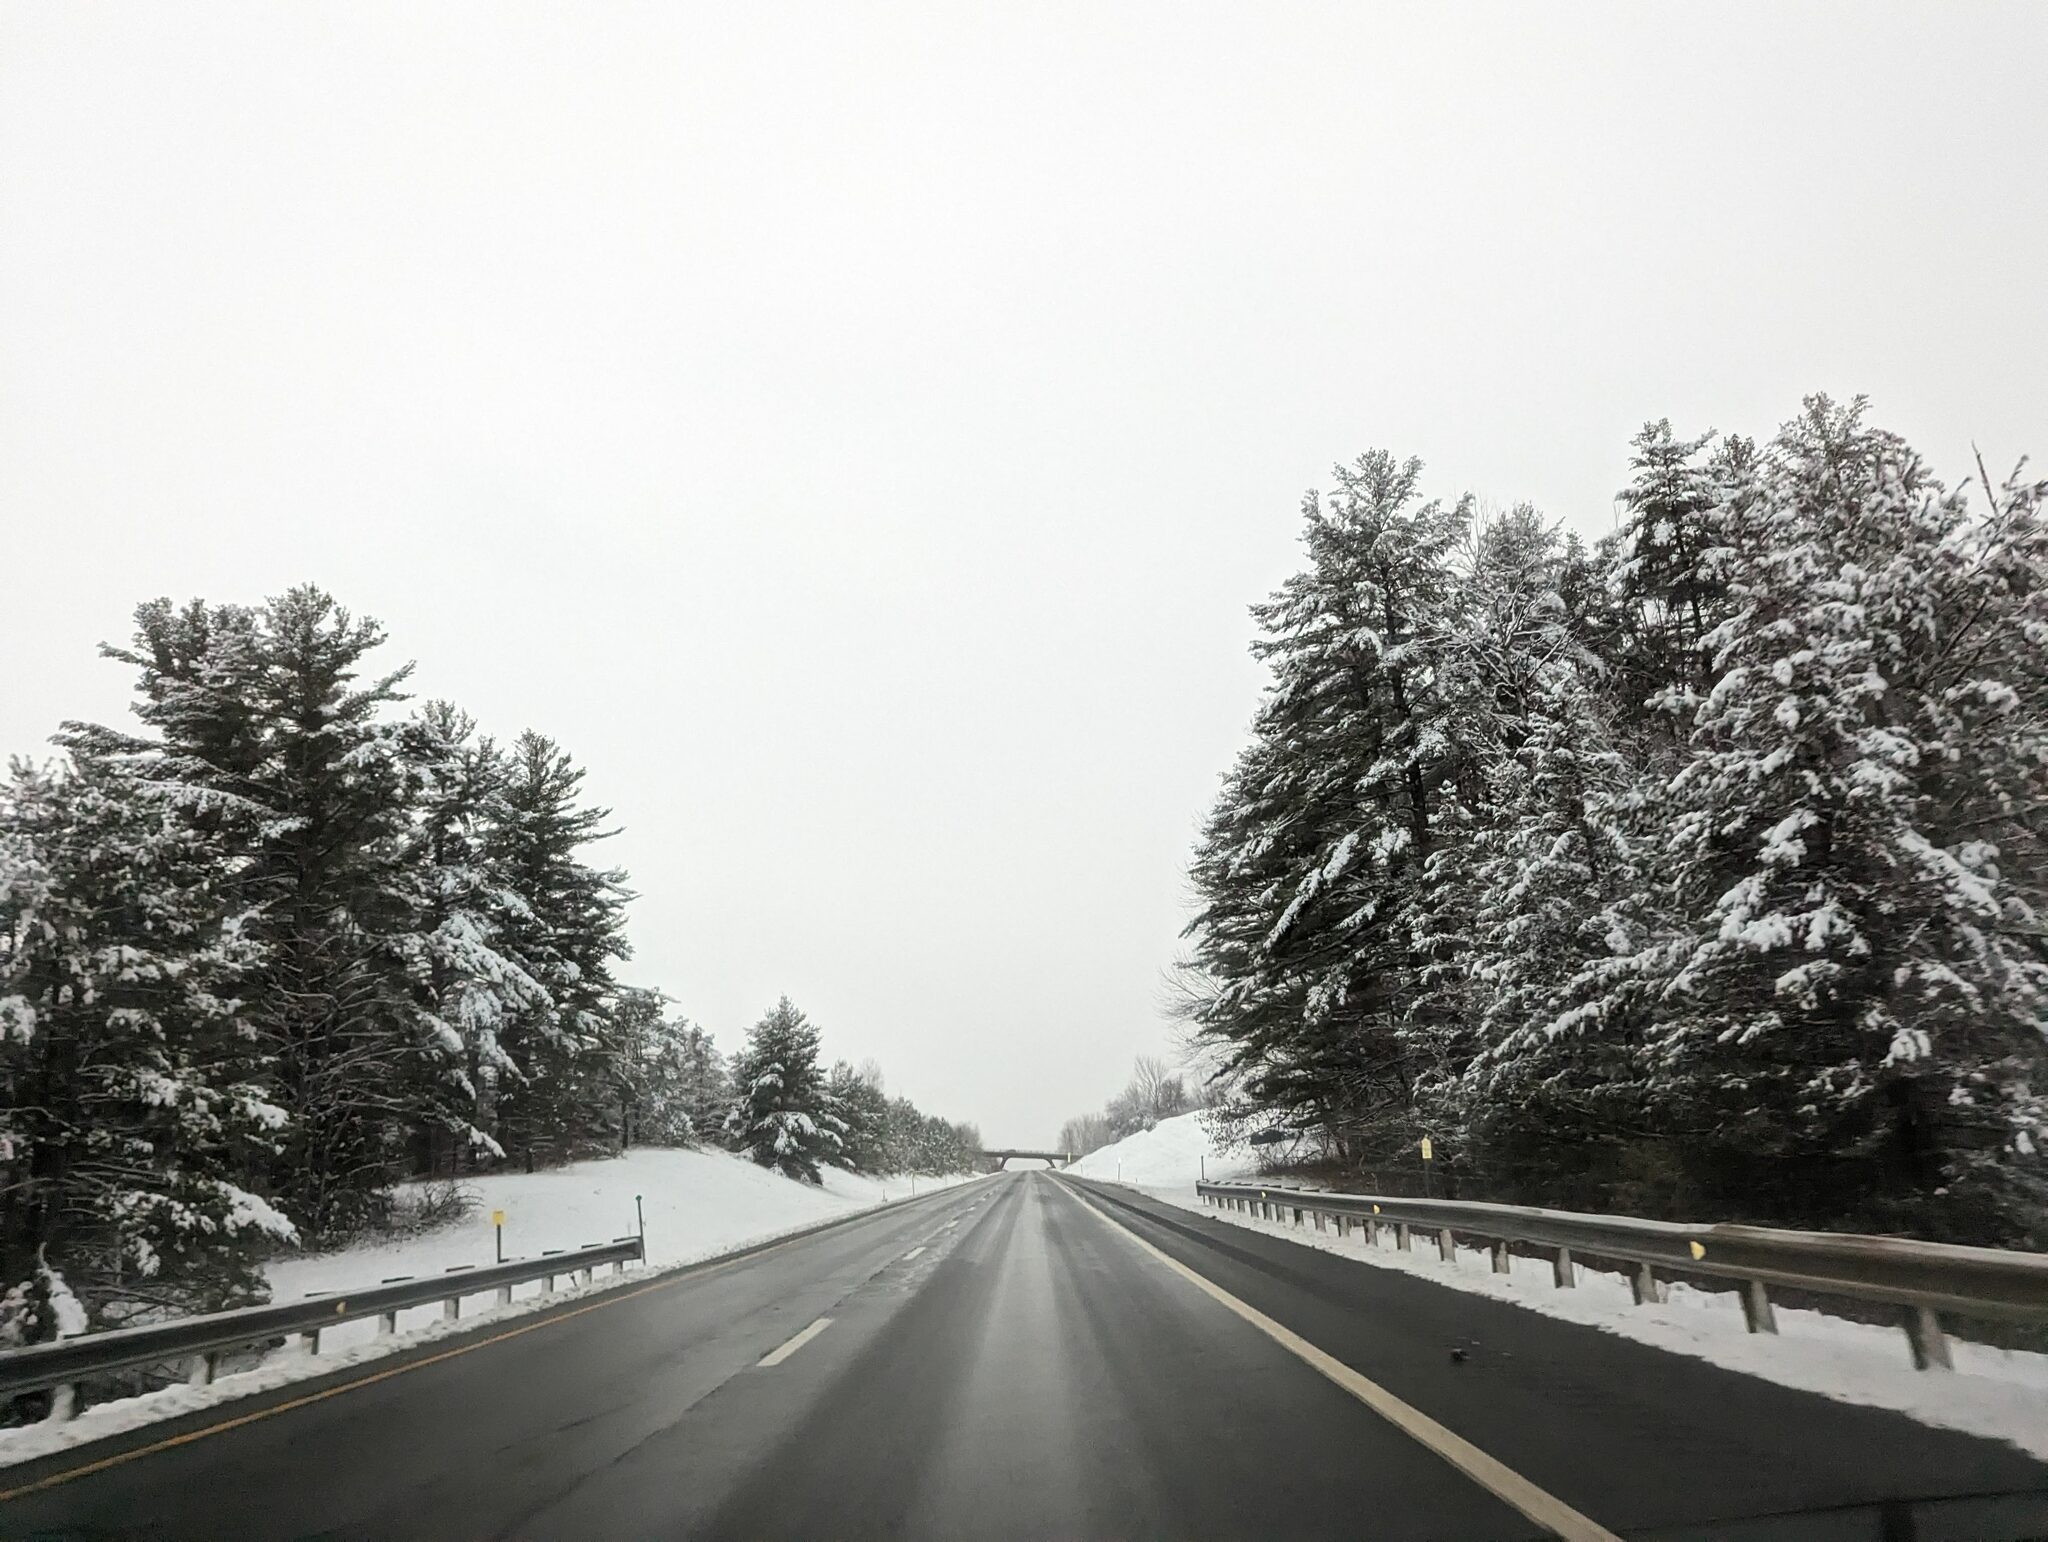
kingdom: Plantae
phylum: Tracheophyta
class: Pinopsida
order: Pinales
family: Pinaceae
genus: Pinus
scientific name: Pinus strobus
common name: Weymouth pine
